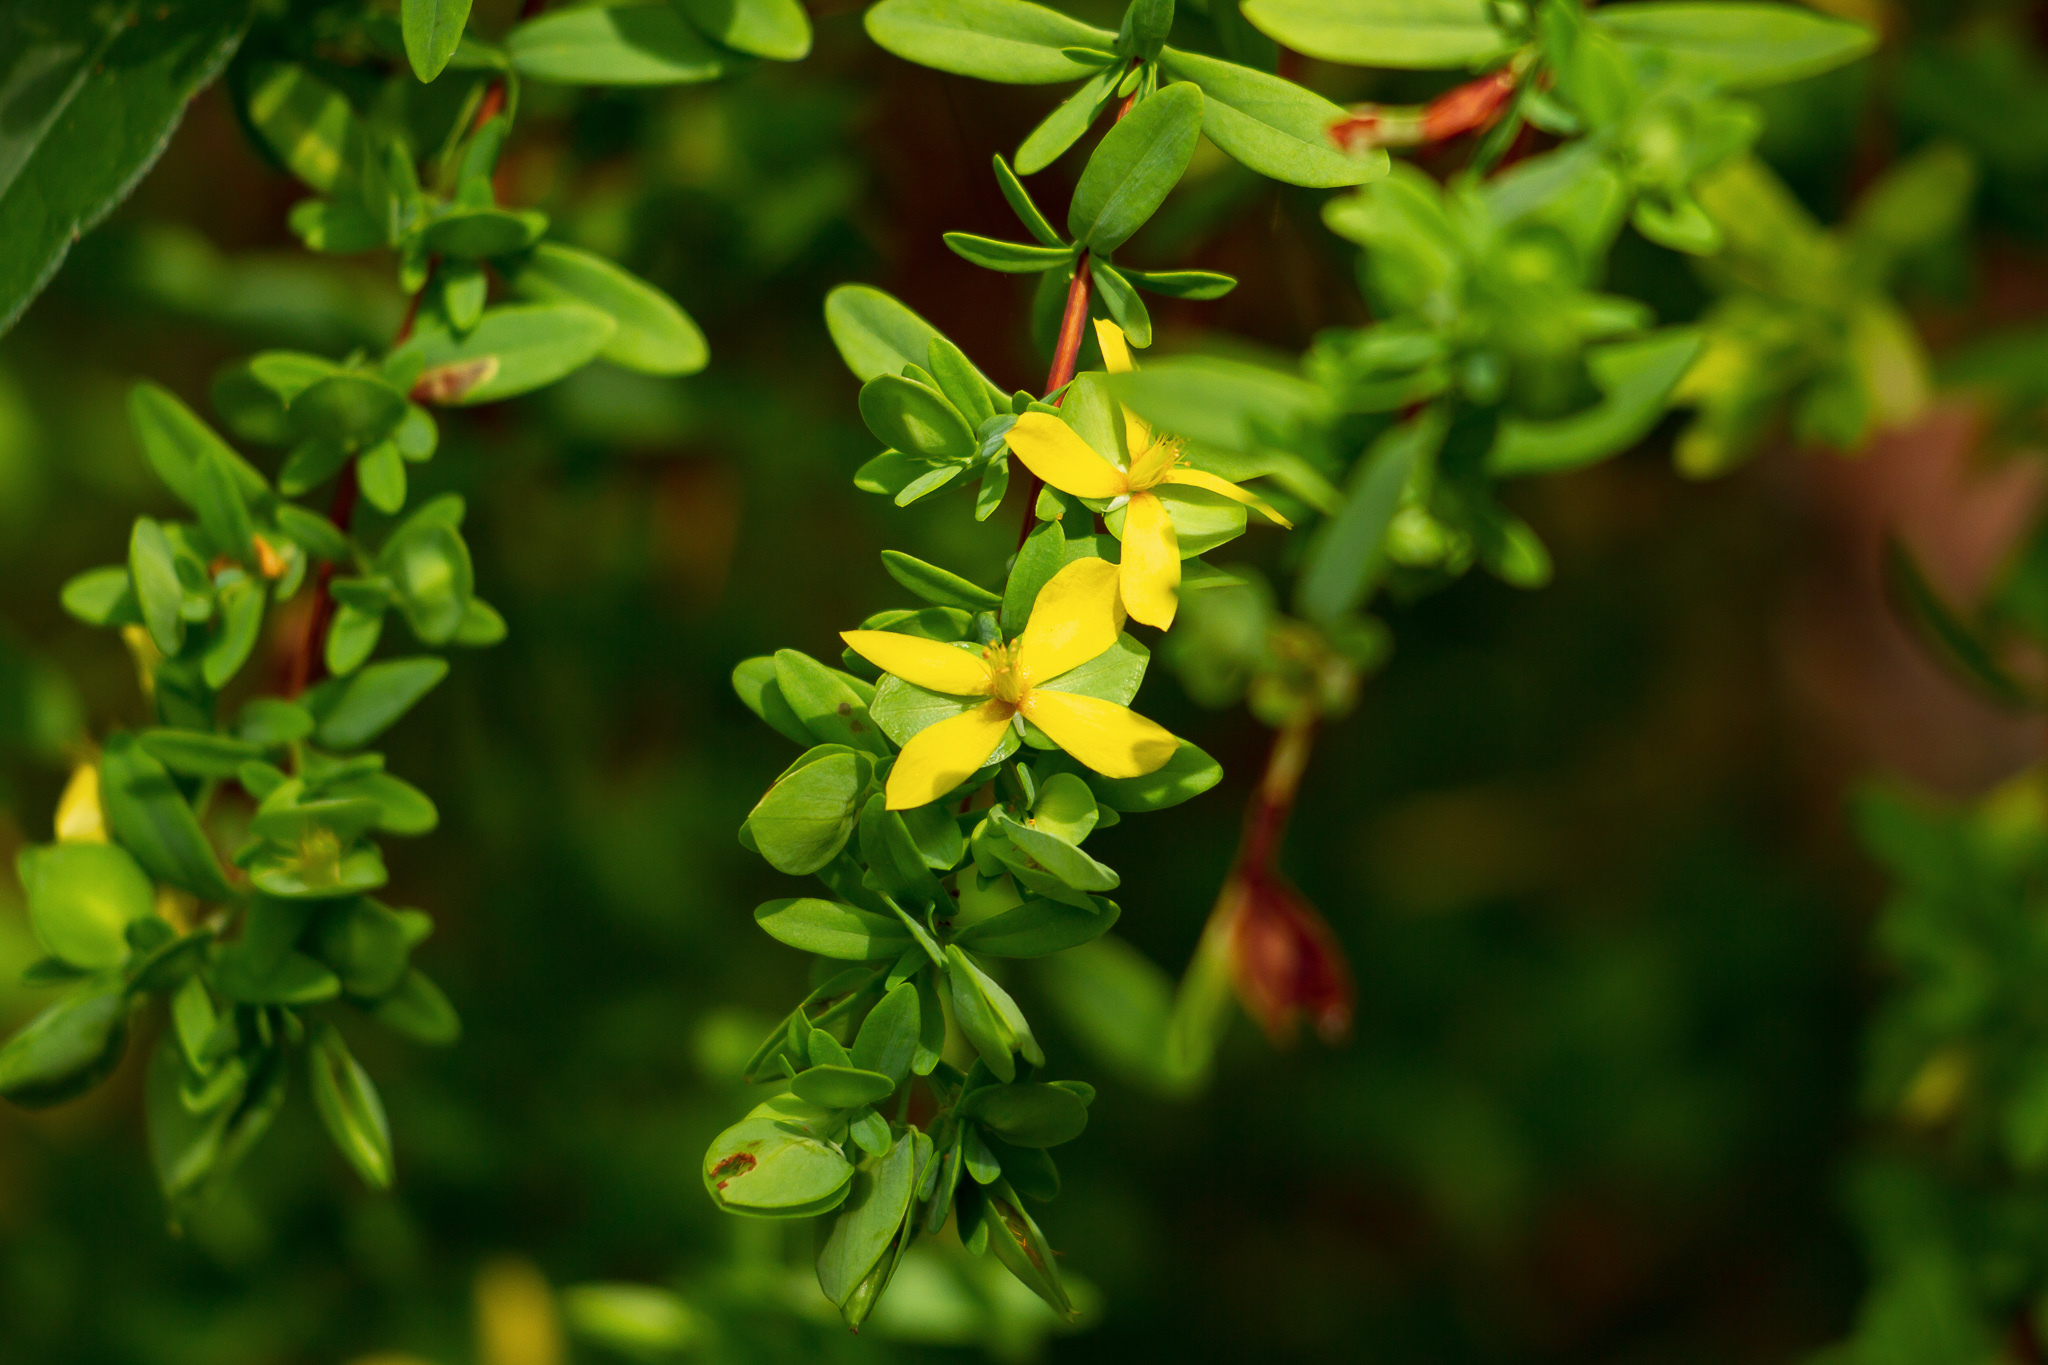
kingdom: Plantae
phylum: Tracheophyta
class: Magnoliopsida
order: Malpighiales
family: Hypericaceae
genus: Hypericum
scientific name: Hypericum hypericoides
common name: St. andrew's cross
